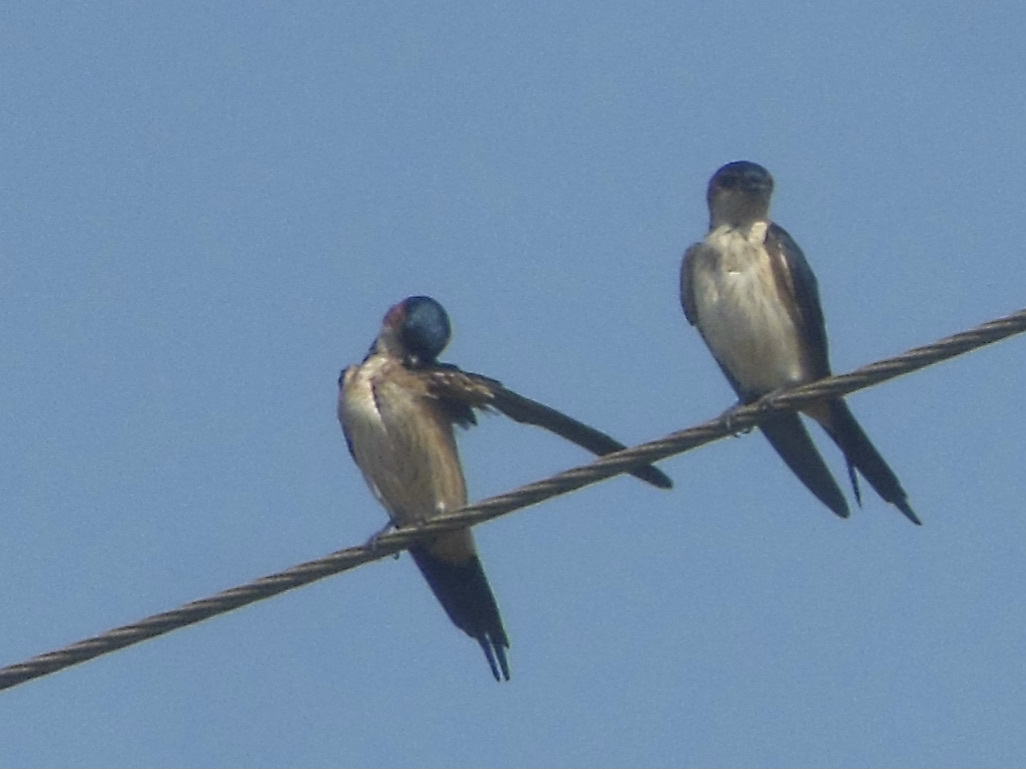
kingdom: Animalia
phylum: Chordata
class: Aves
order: Passeriformes
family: Hirundinidae
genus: Cecropis
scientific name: Cecropis daurica
